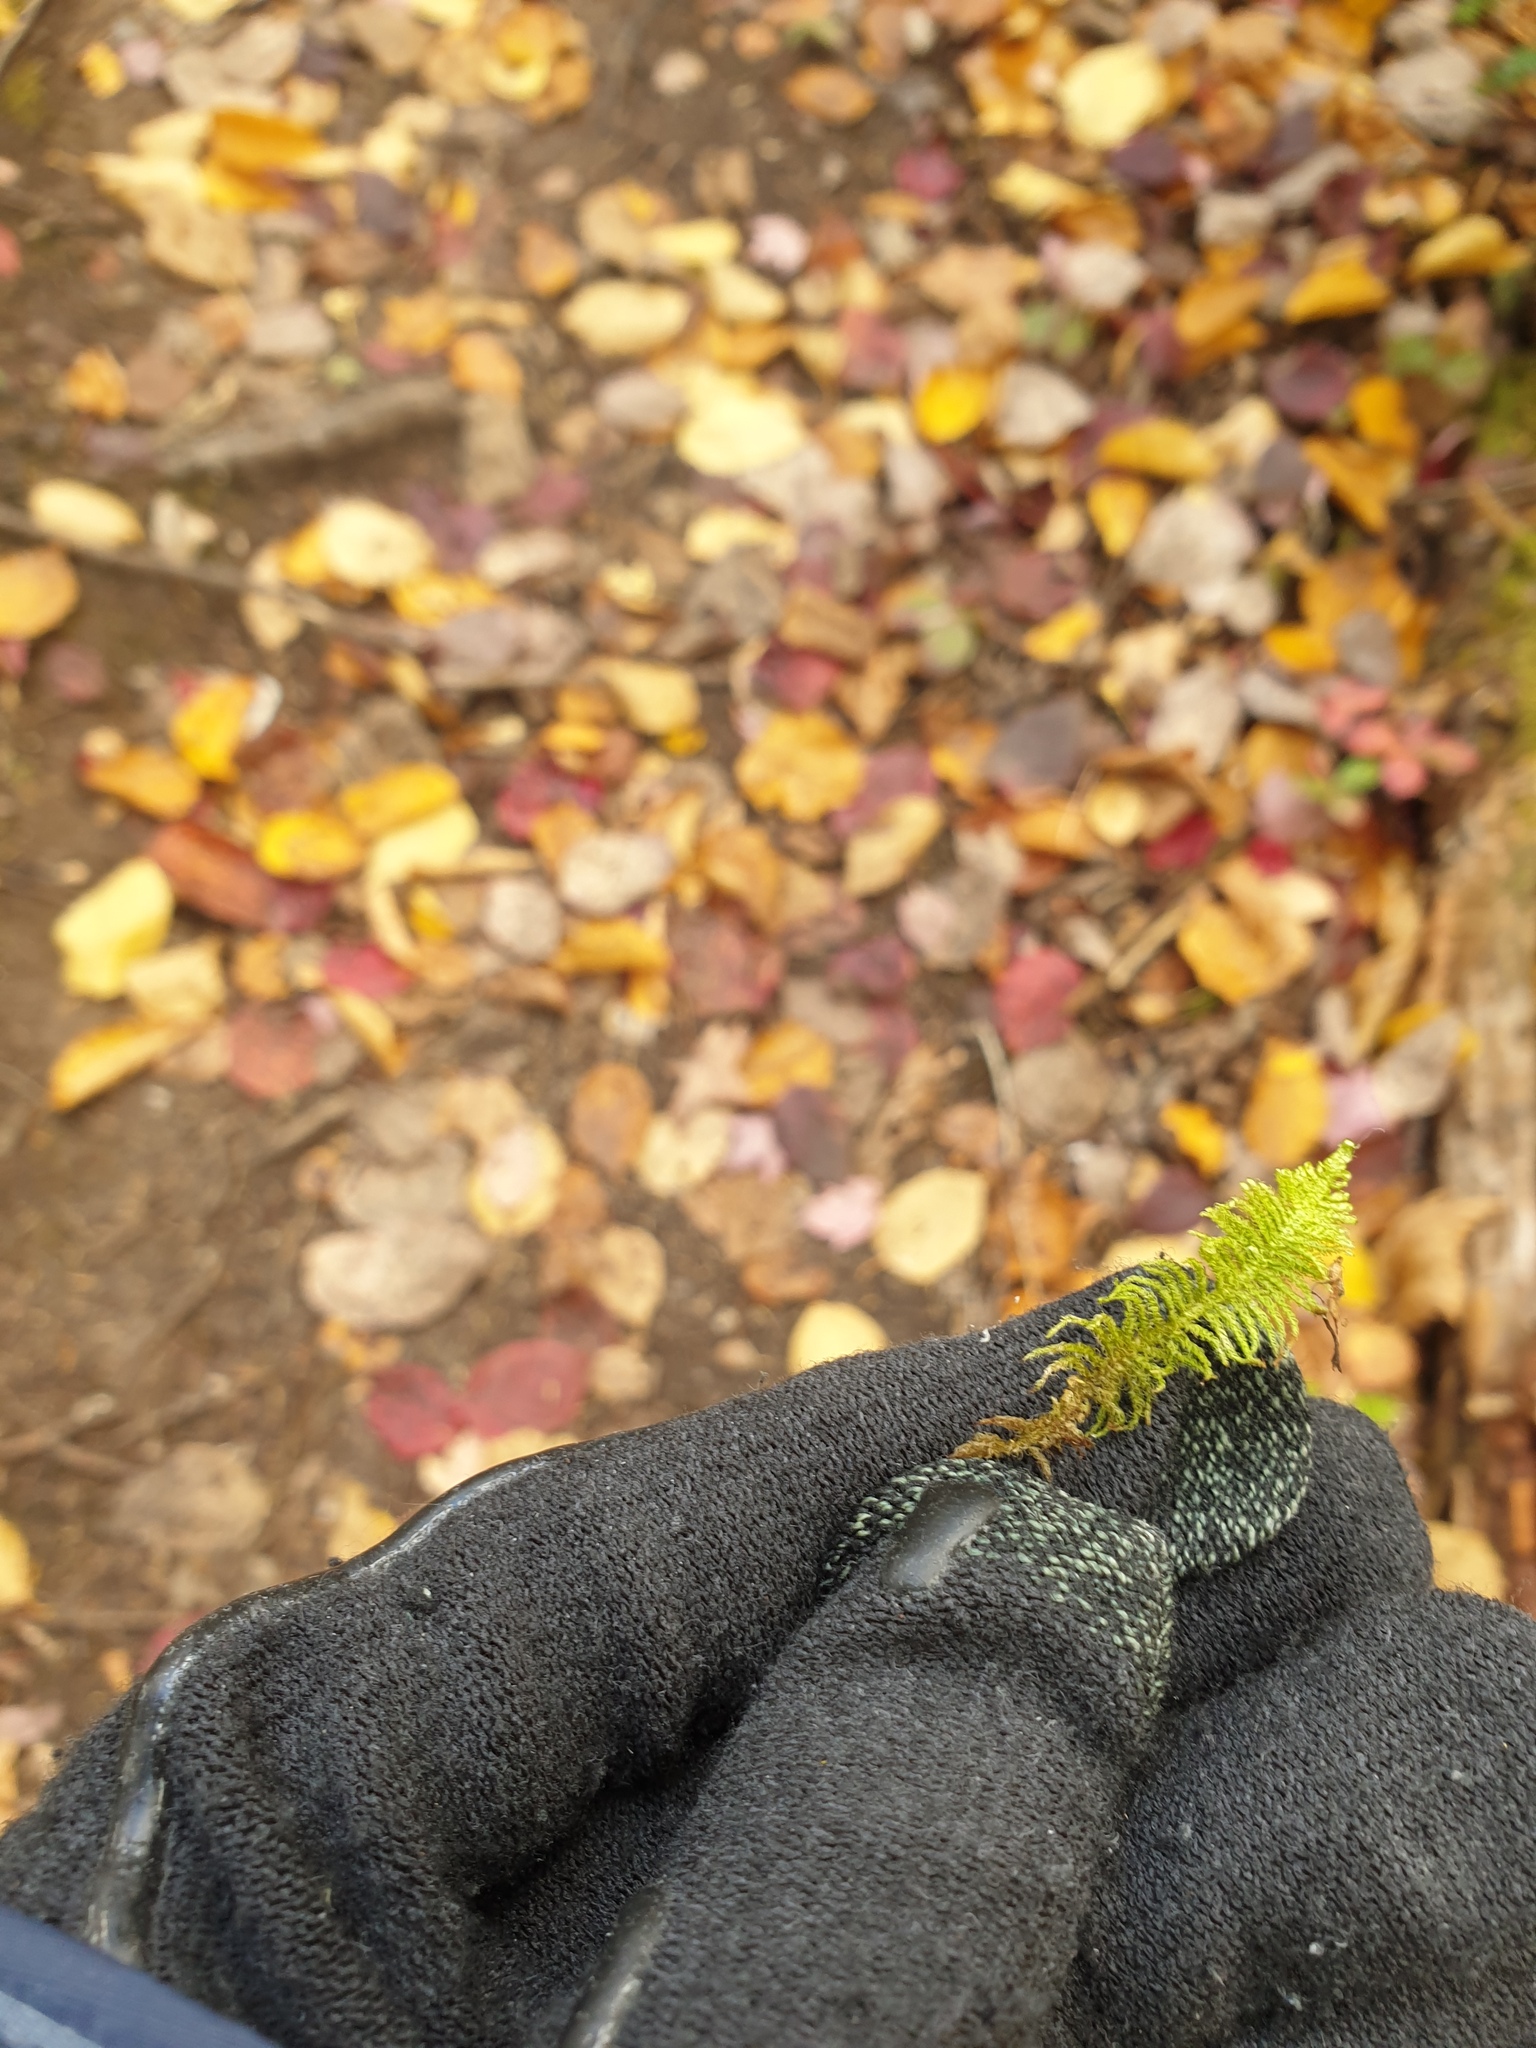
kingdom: Plantae
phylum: Bryophyta
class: Bryopsida
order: Hypnales
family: Pylaisiaceae
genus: Ptilium
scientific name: Ptilium crista-castrensis
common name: Knight's plume moss
